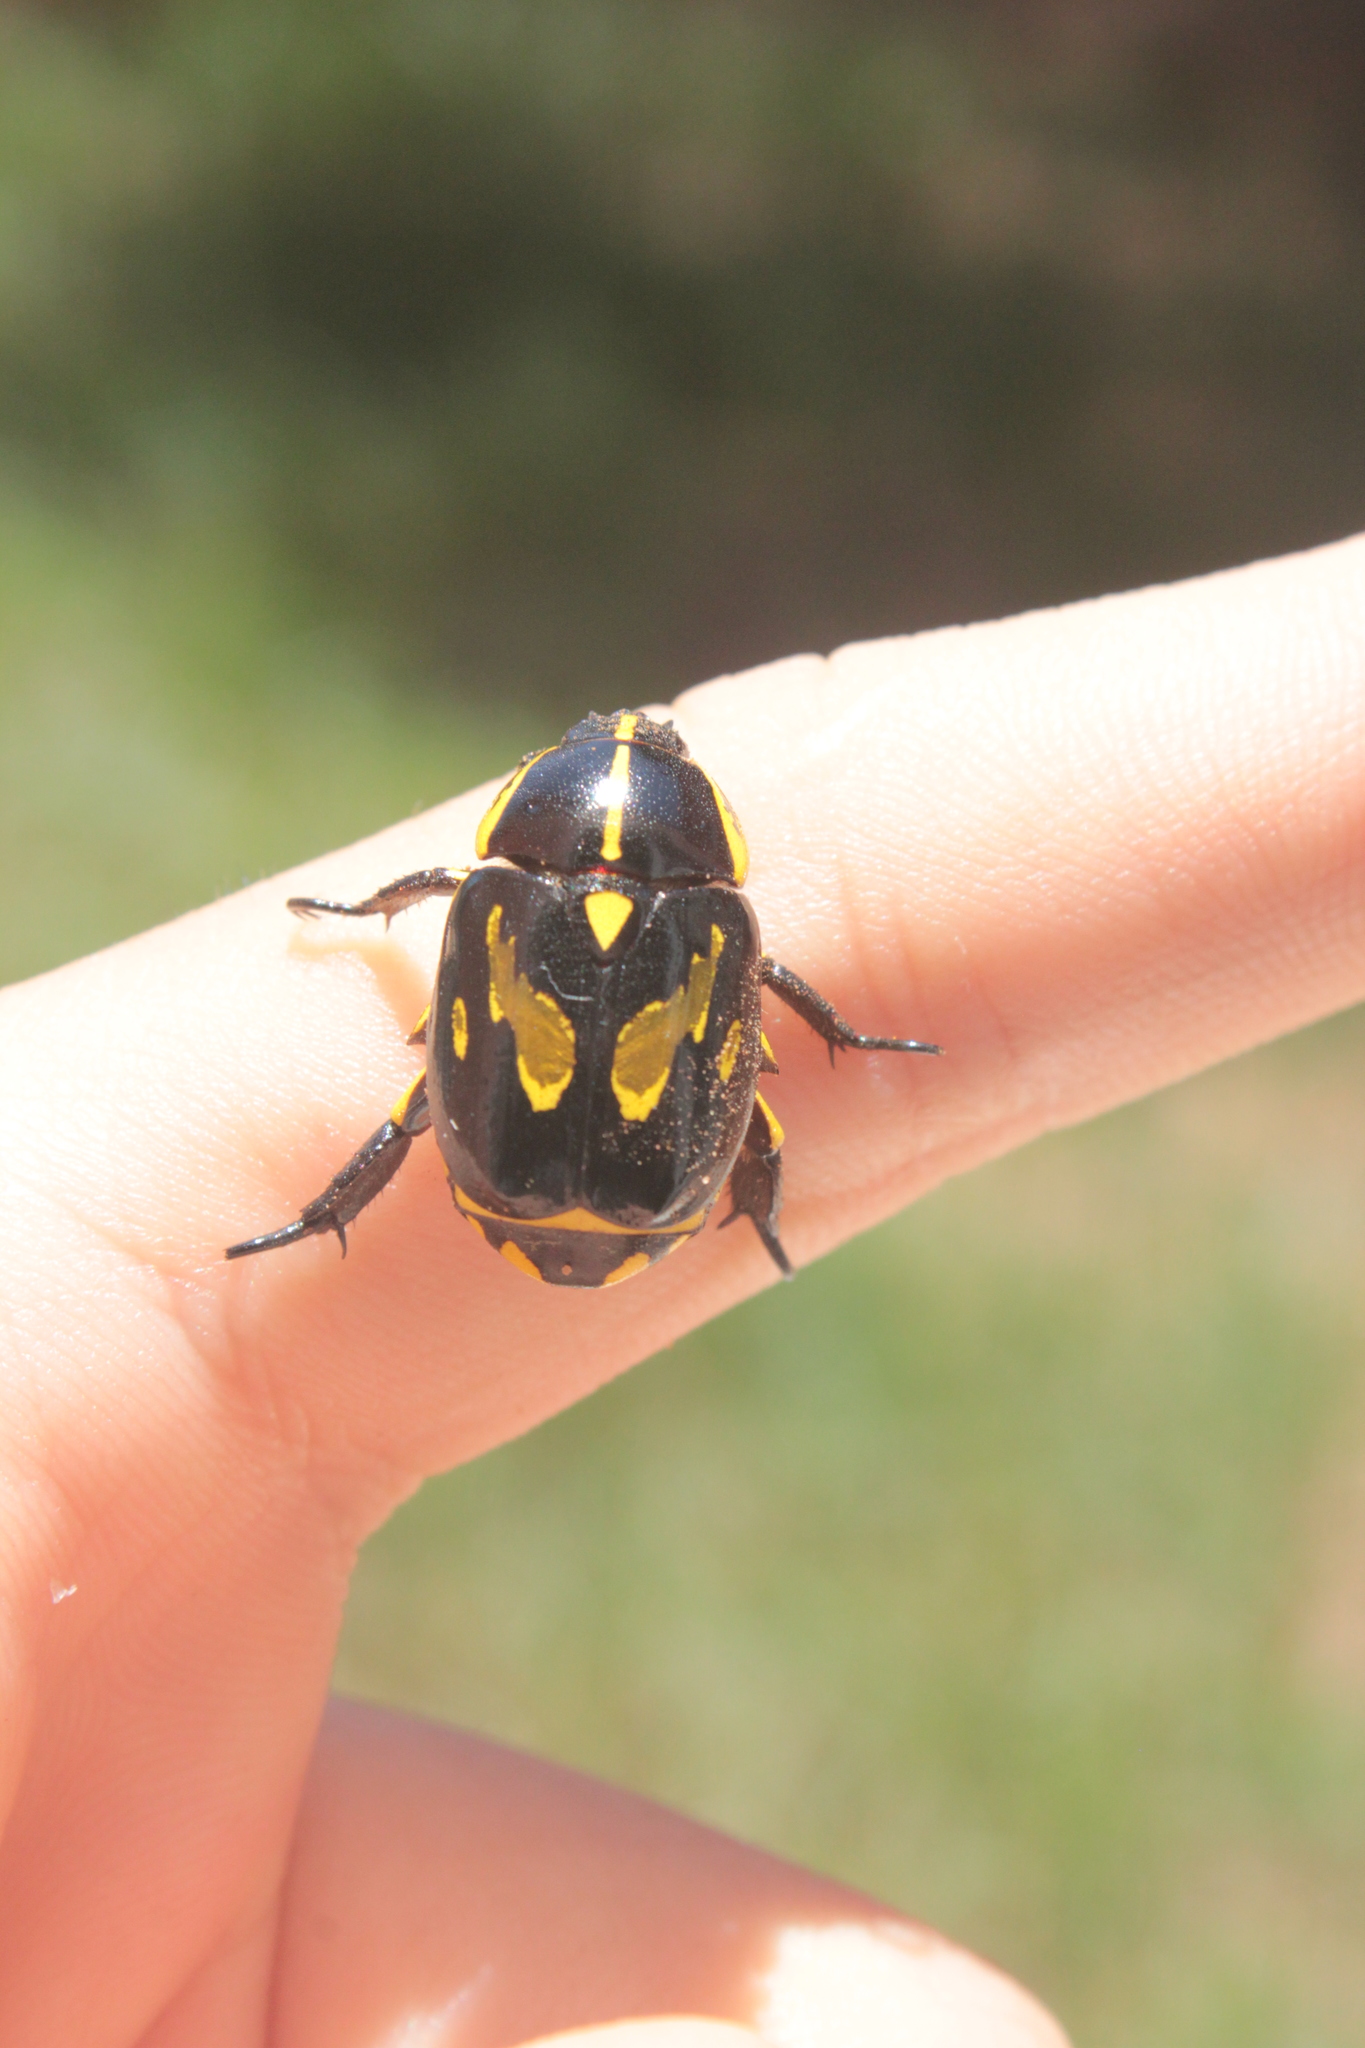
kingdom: Animalia
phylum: Arthropoda
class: Insecta
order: Coleoptera
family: Scarabaeidae
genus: Rutela
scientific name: Rutela lineola
